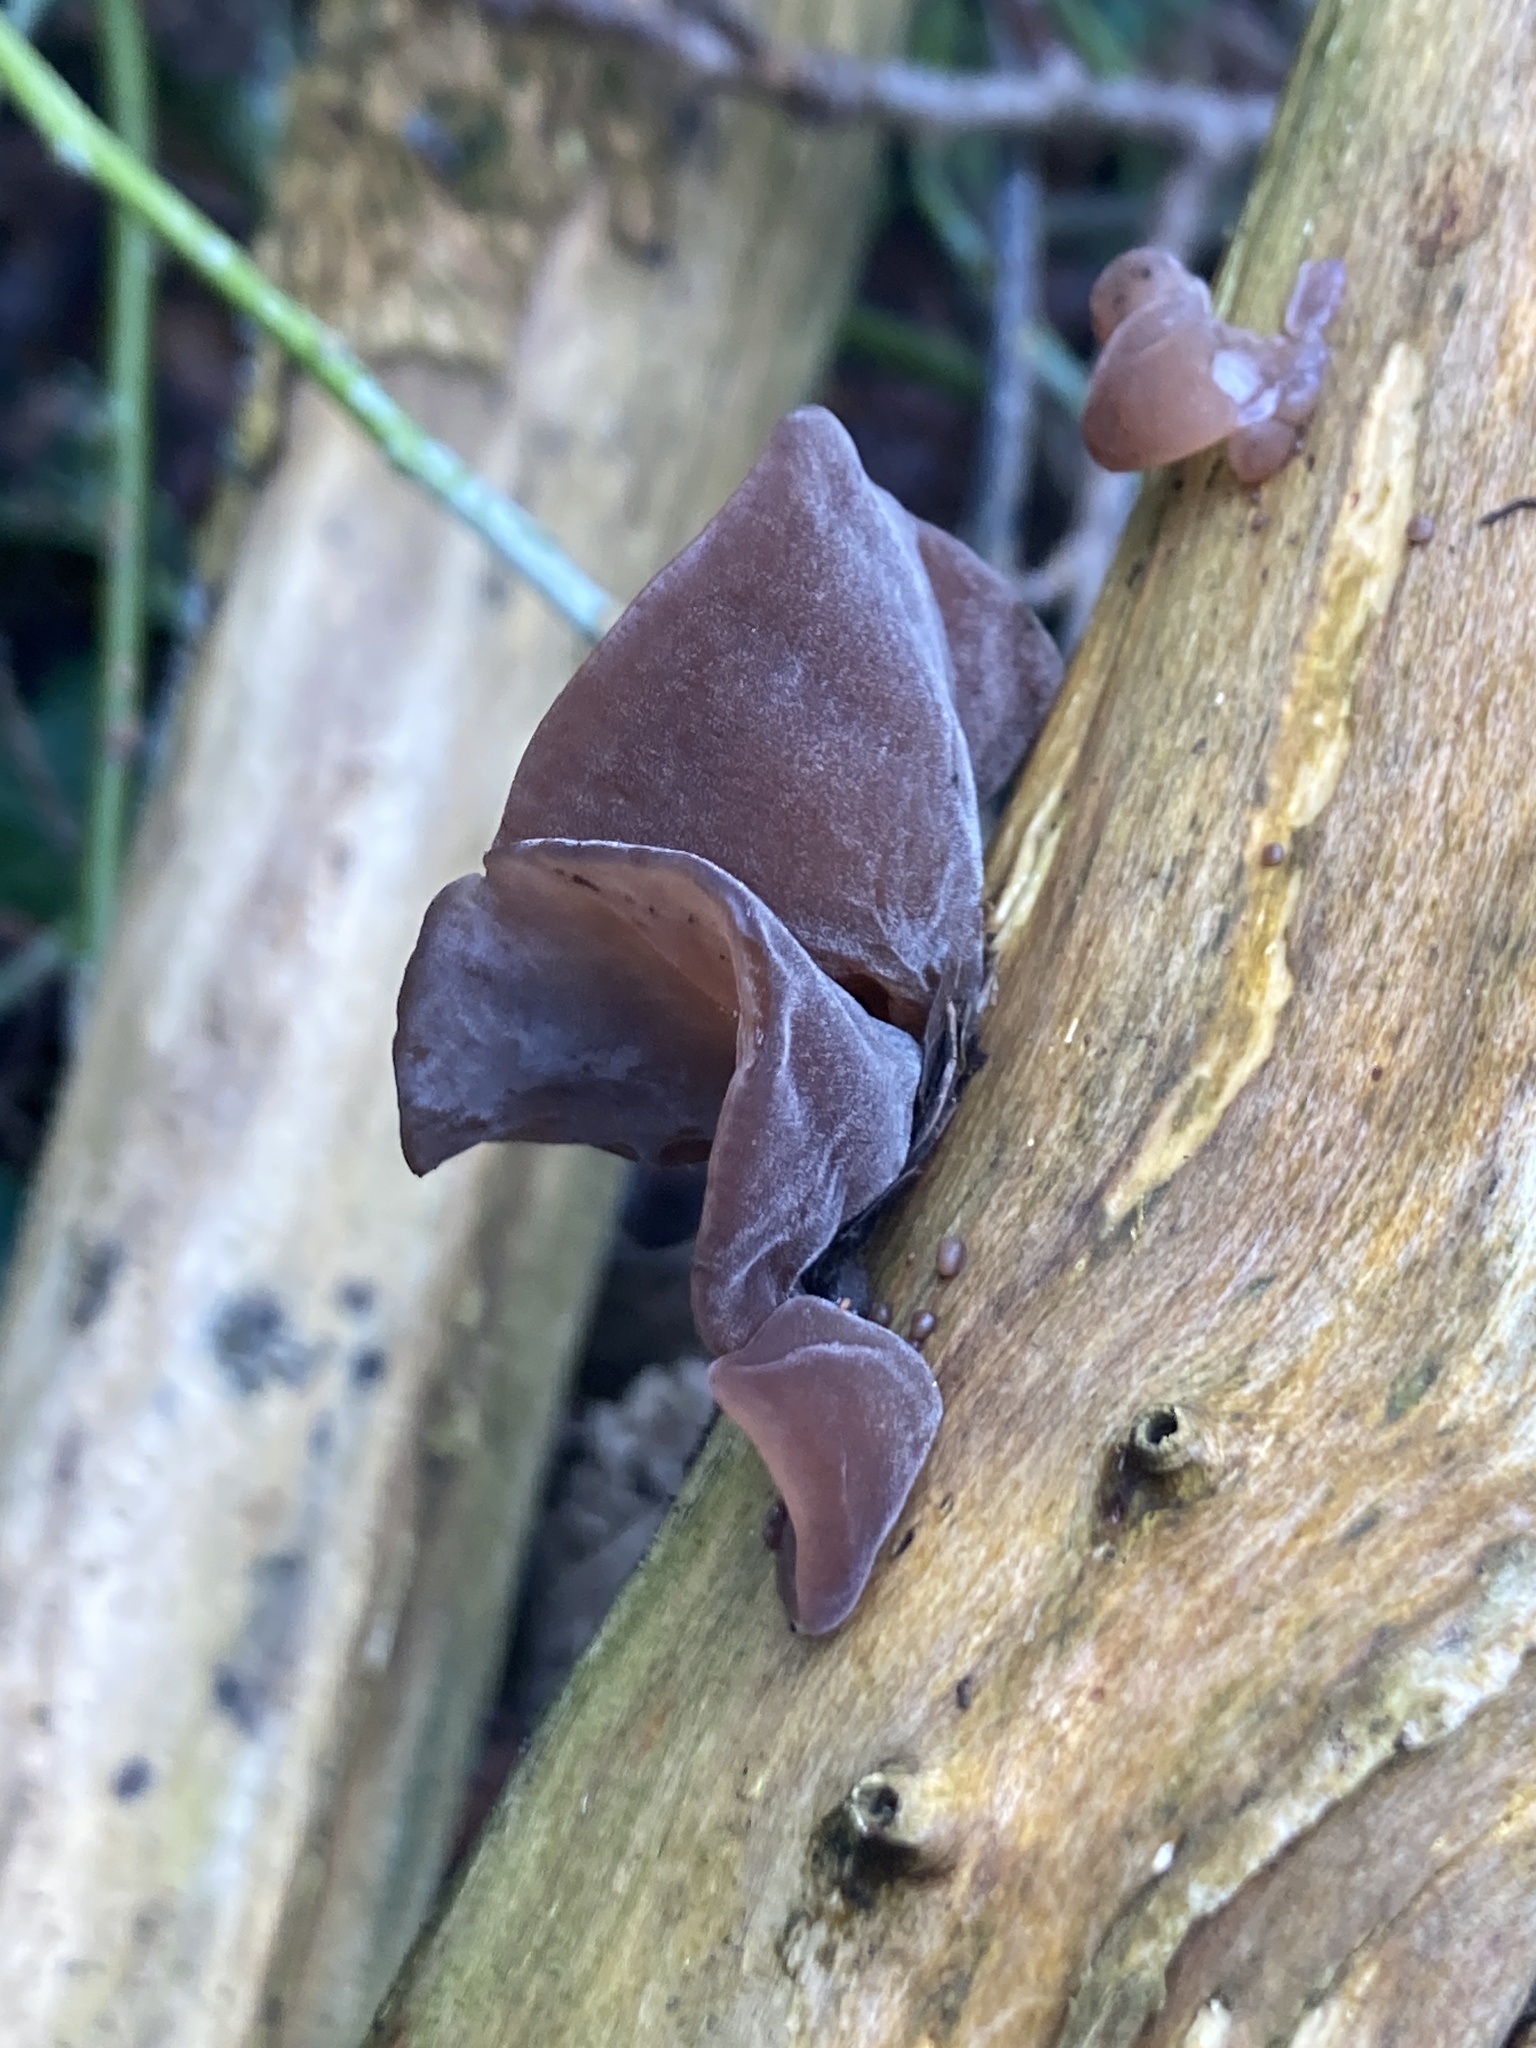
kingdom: Fungi
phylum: Basidiomycota
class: Agaricomycetes
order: Auriculariales
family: Auriculariaceae
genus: Auricularia
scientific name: Auricularia auricula-judae
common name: Jelly ear
